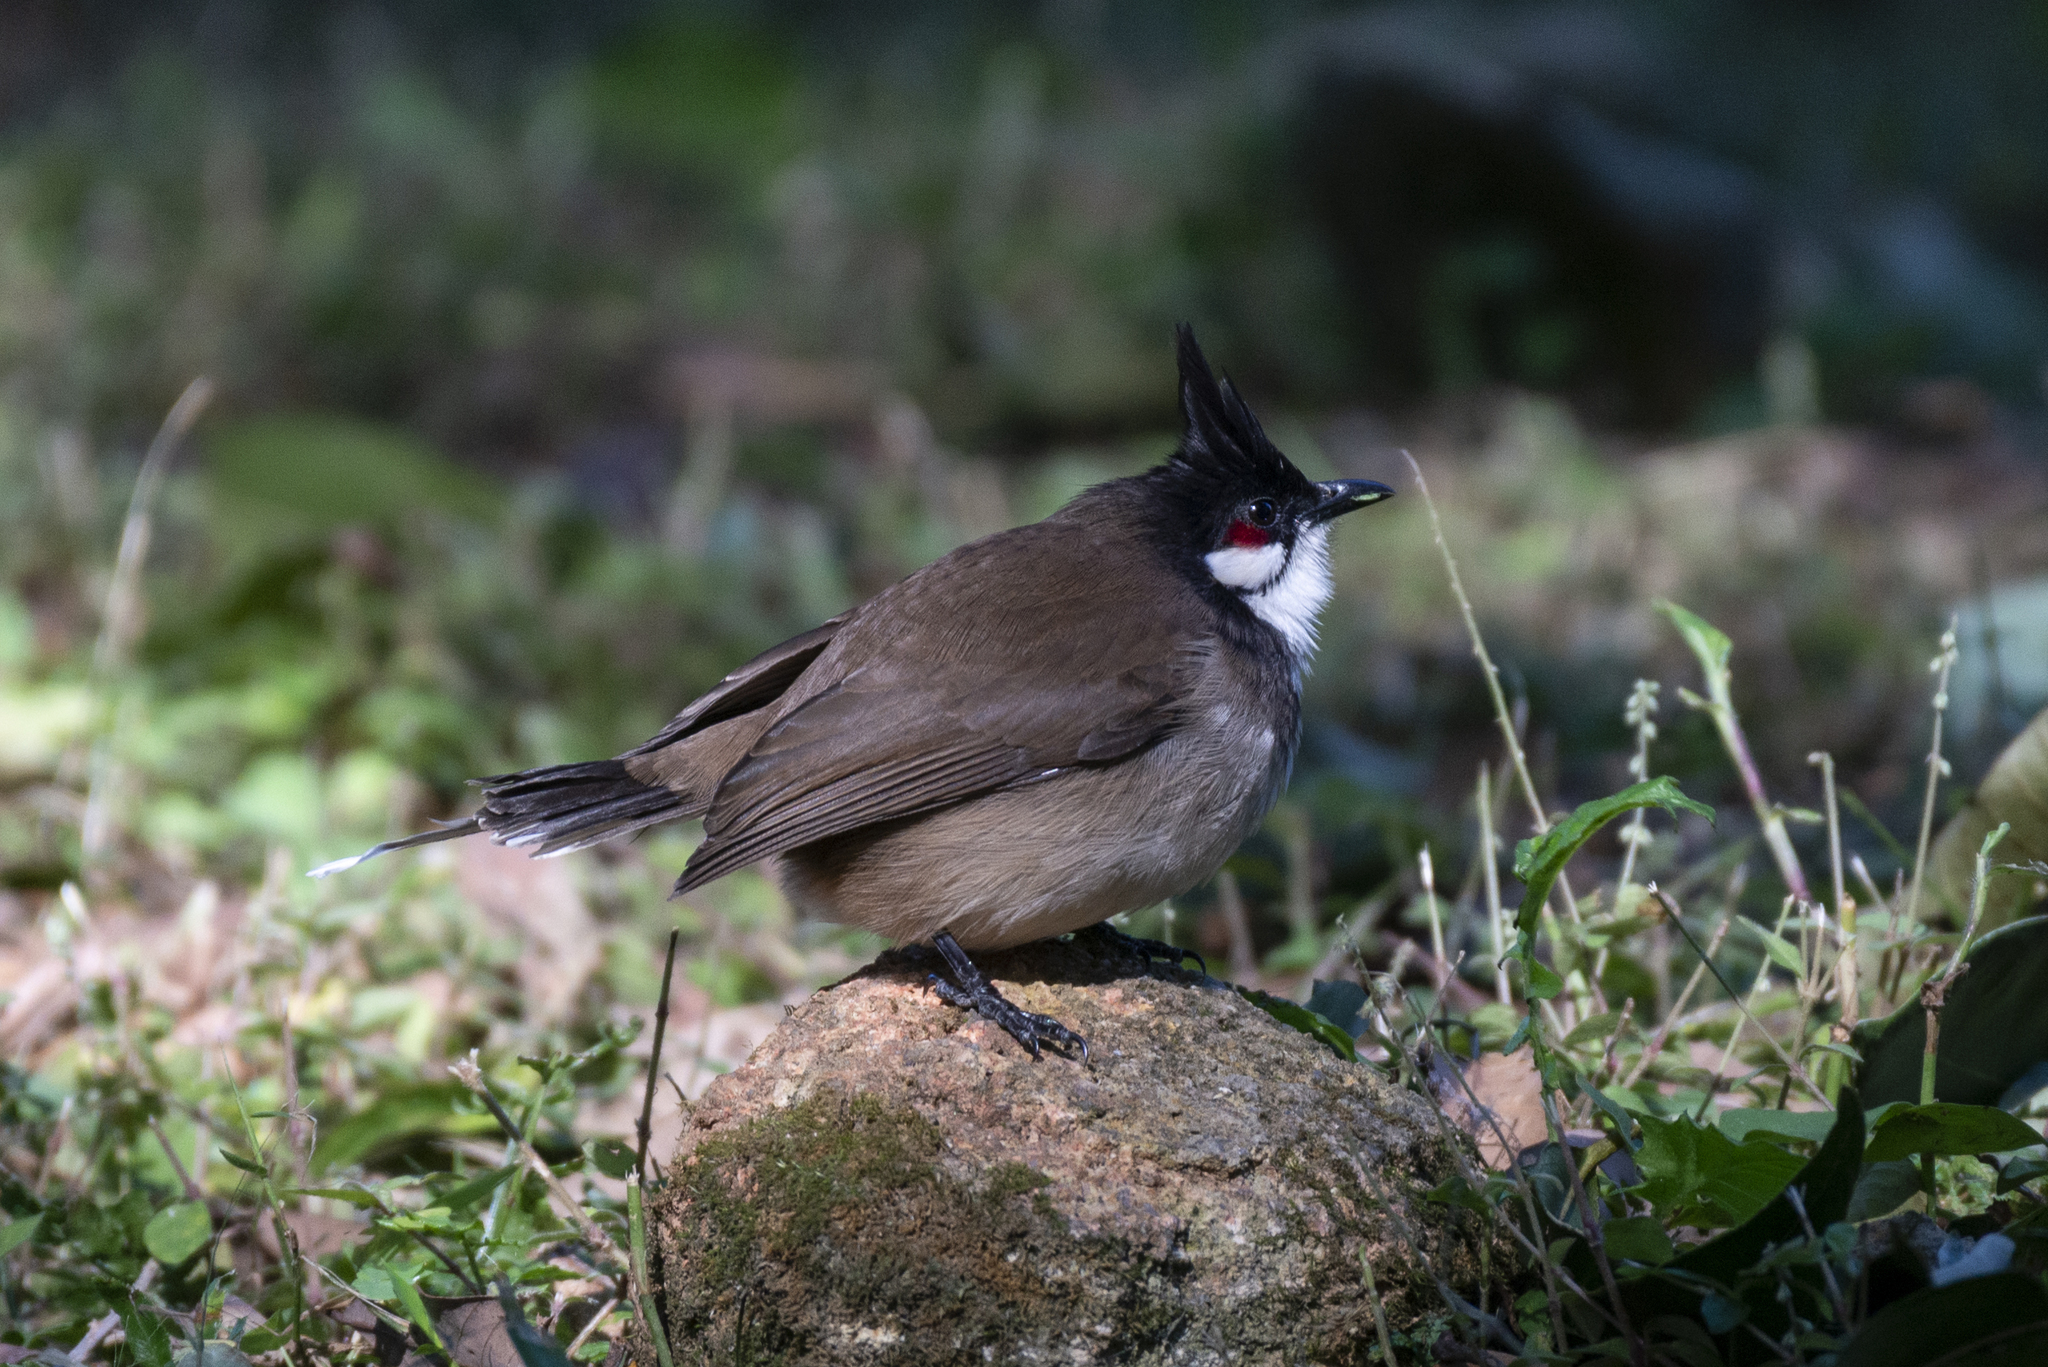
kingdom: Animalia
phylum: Chordata
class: Aves
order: Passeriformes
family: Pycnonotidae
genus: Pycnonotus
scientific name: Pycnonotus jocosus
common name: Red-whiskered bulbul
